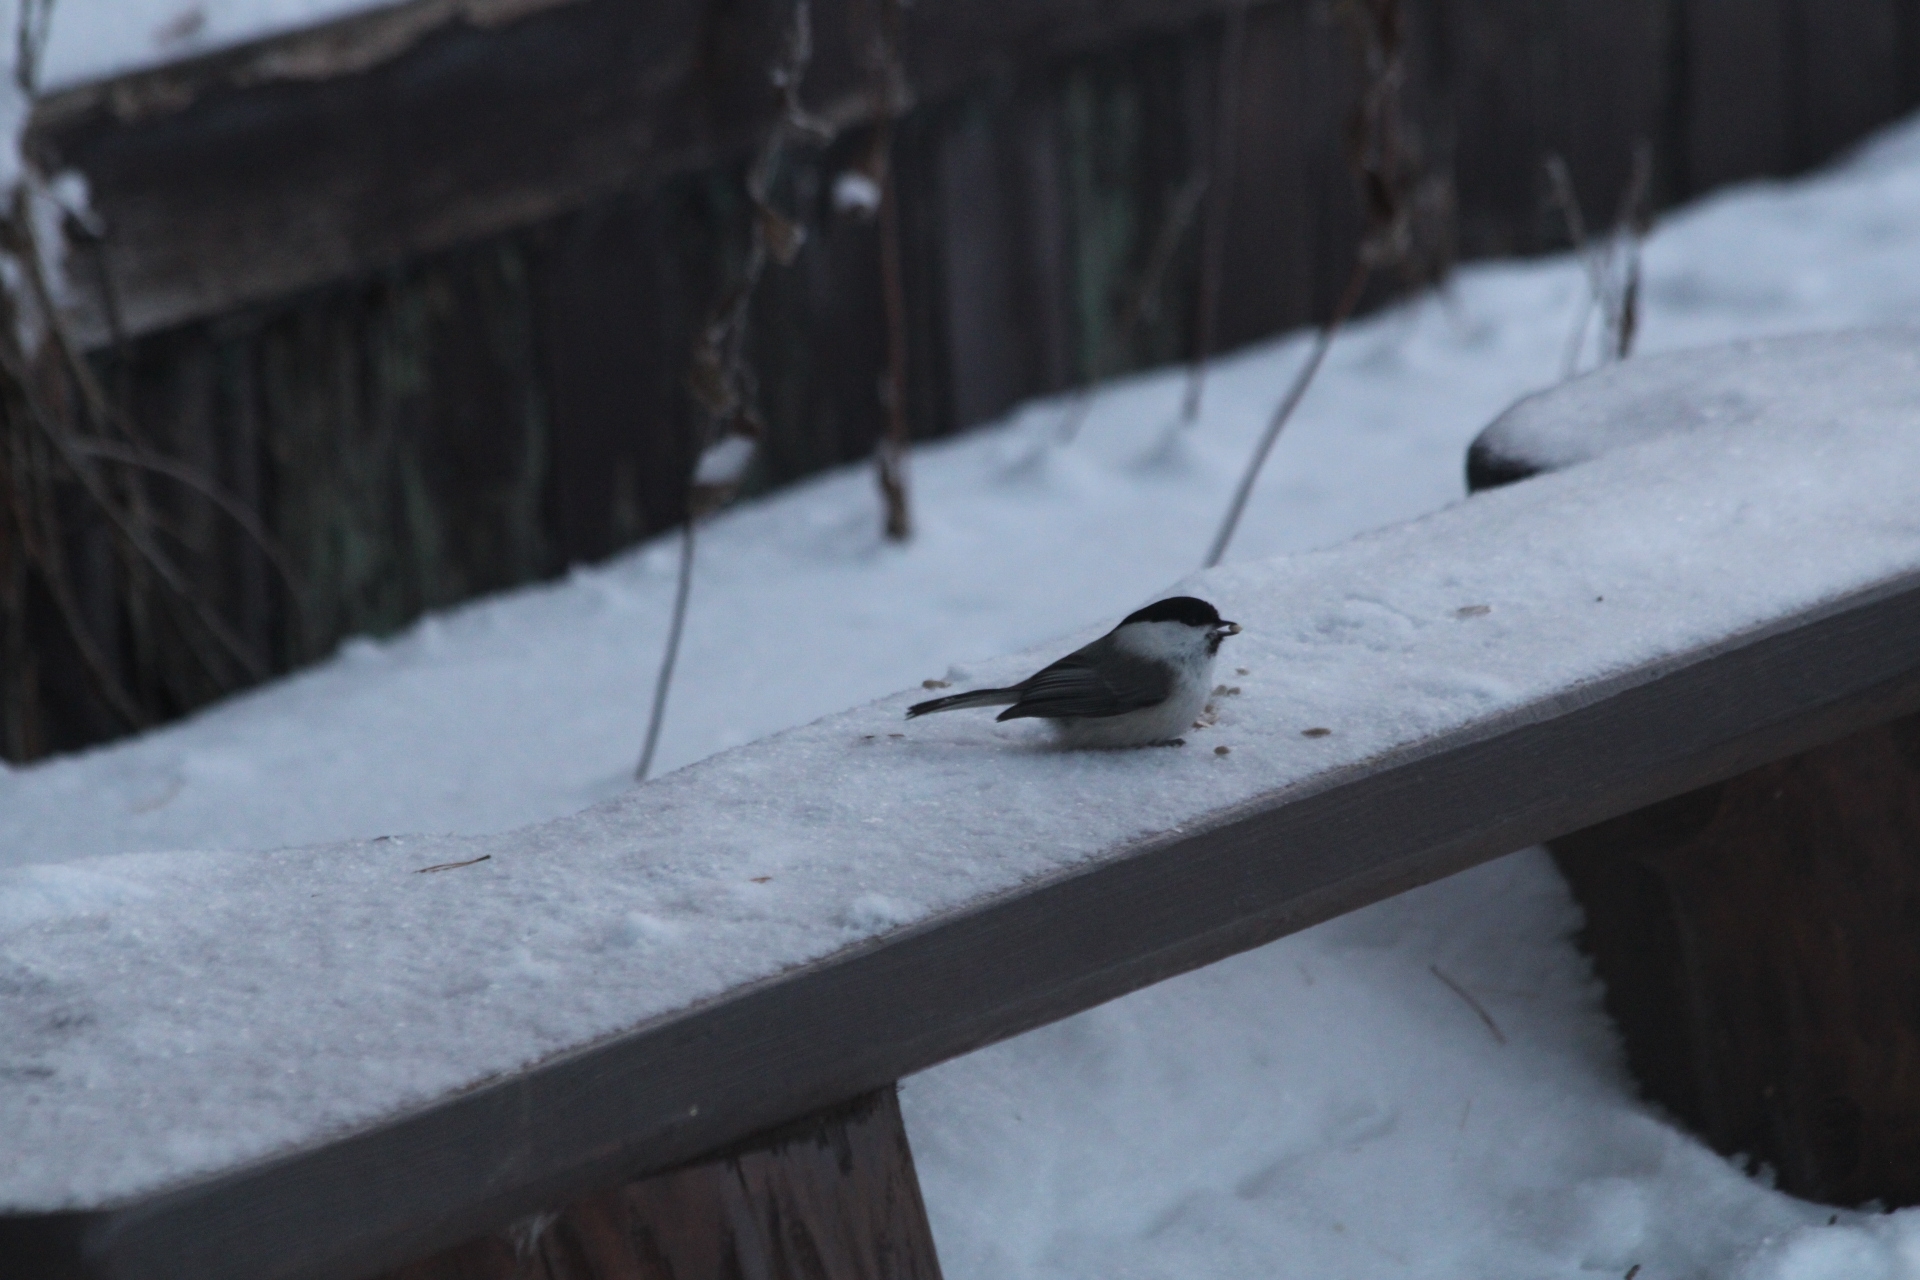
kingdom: Animalia
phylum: Chordata
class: Aves
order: Passeriformes
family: Paridae
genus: Poecile
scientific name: Poecile montanus
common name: Willow tit
